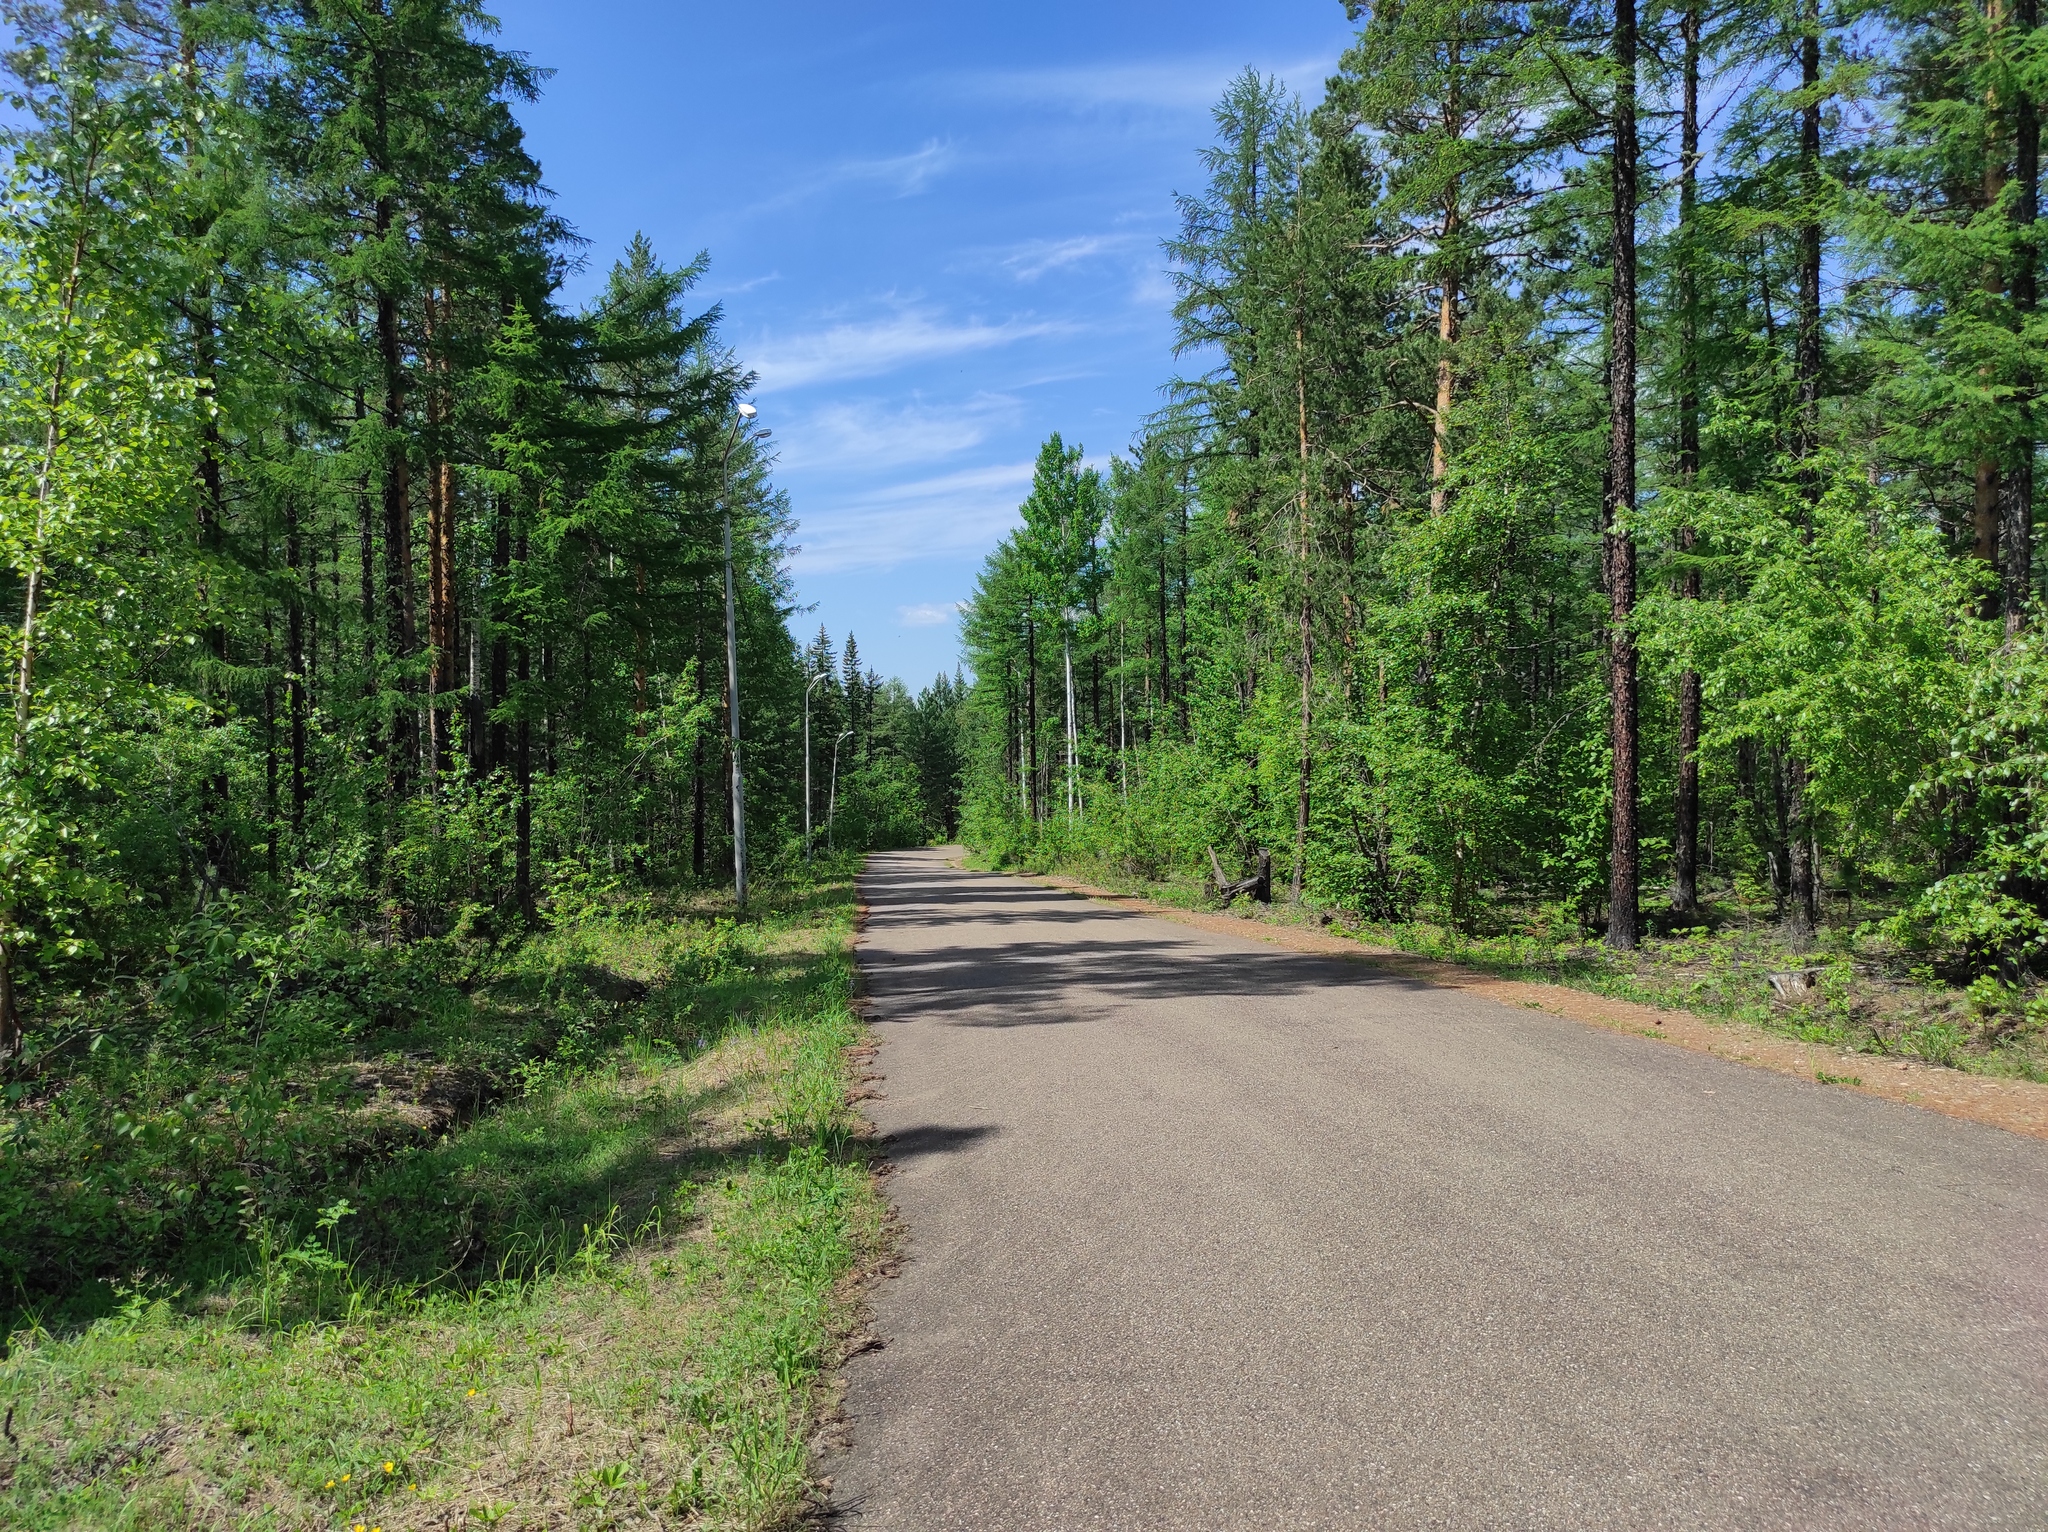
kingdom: Plantae
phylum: Tracheophyta
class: Pinopsida
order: Pinales
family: Pinaceae
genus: Larix
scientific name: Larix gmelinii
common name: Dahurian larch
